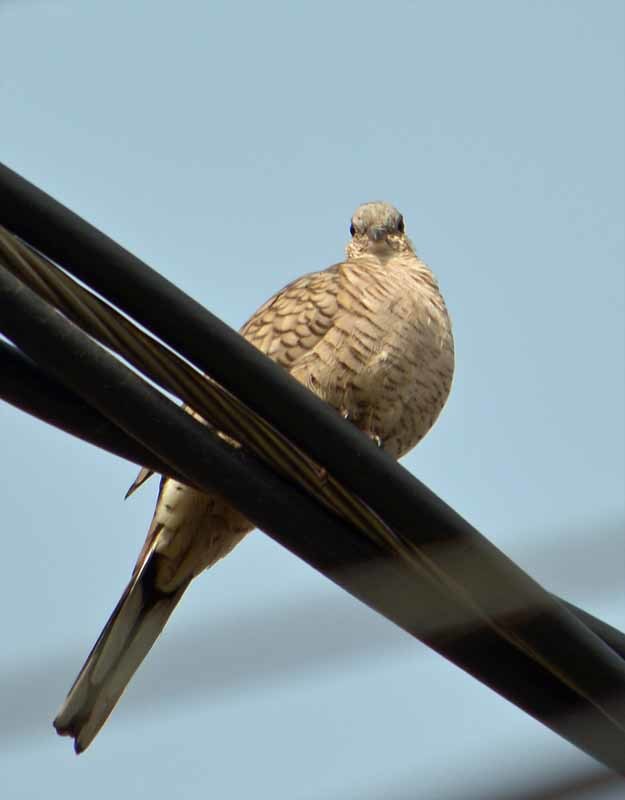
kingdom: Animalia
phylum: Chordata
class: Aves
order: Columbiformes
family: Columbidae
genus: Columbina
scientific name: Columbina inca
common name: Inca dove
